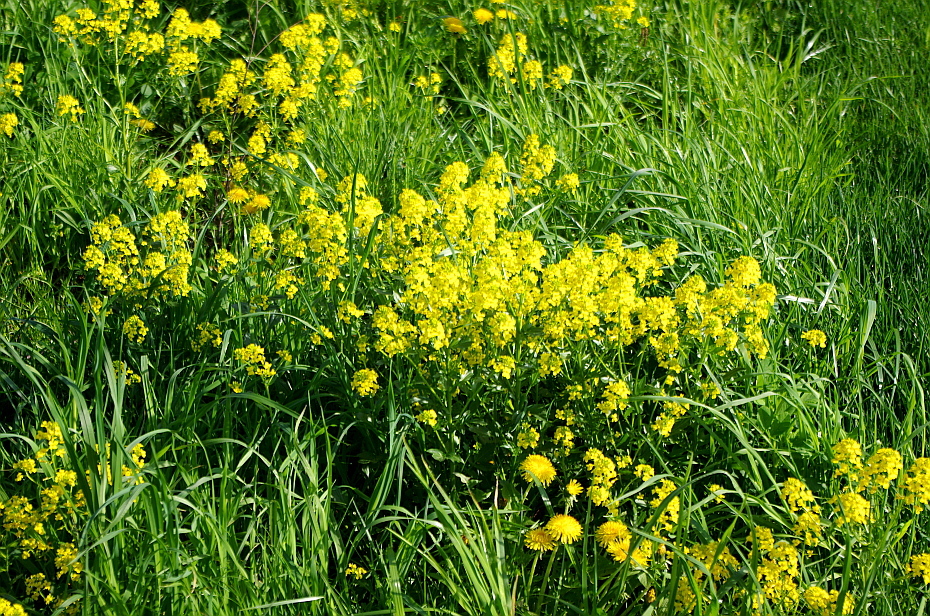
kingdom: Plantae
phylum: Tracheophyta
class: Magnoliopsida
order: Brassicales
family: Brassicaceae
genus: Barbarea
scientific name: Barbarea vulgaris
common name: Cressy-greens
